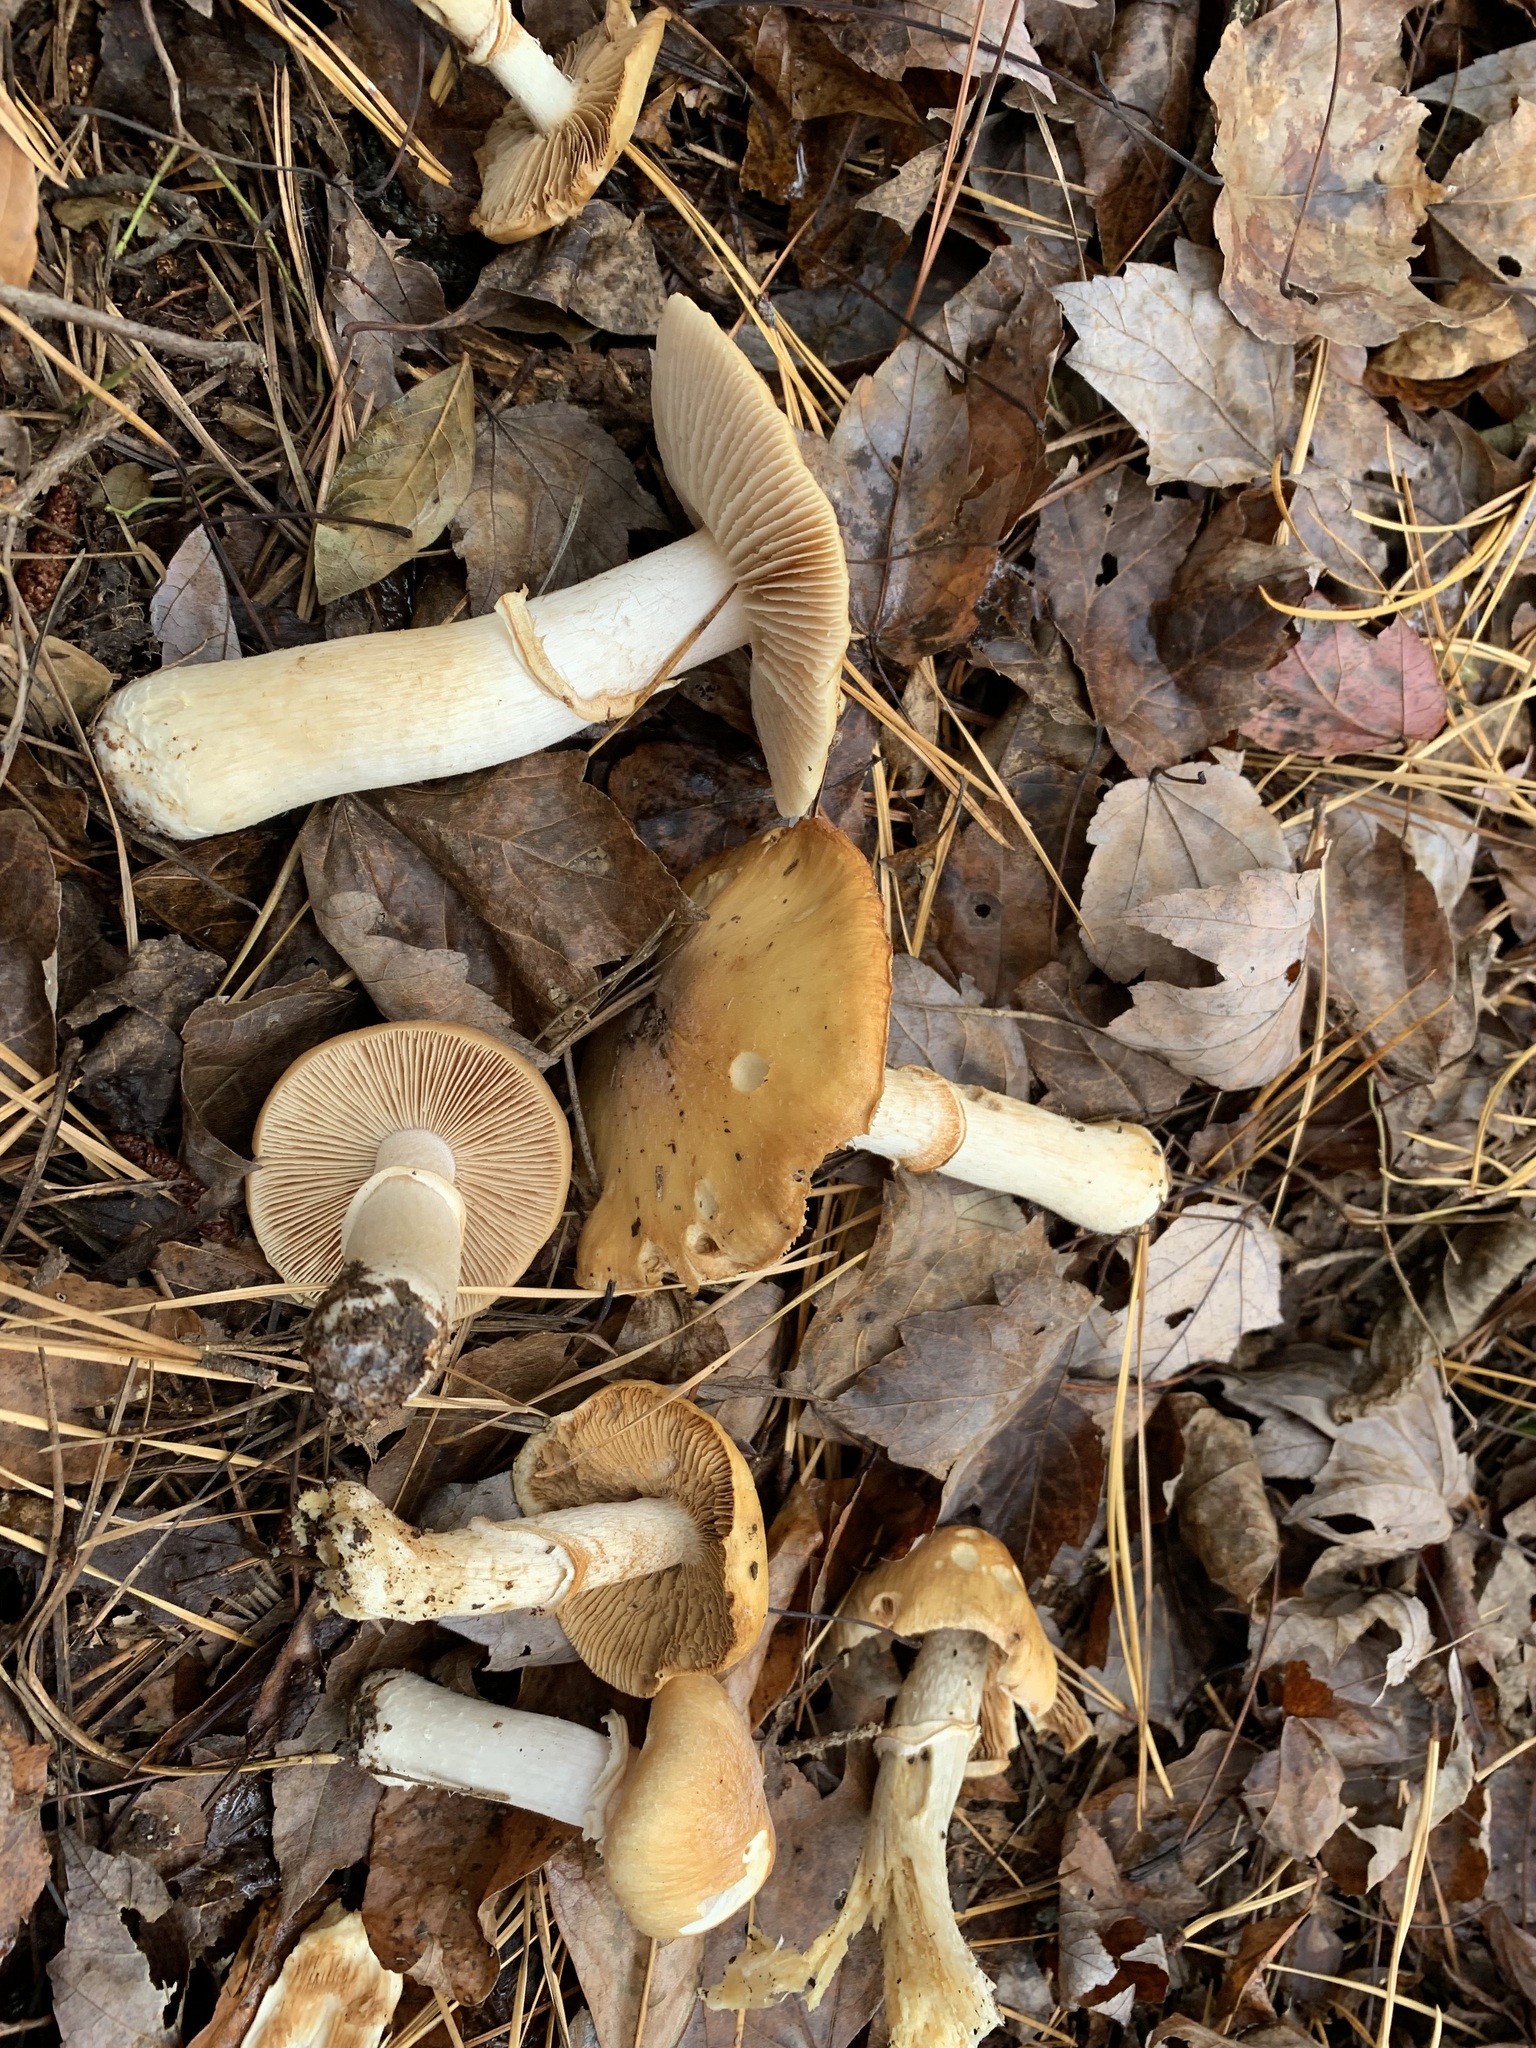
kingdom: Fungi
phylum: Basidiomycota
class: Agaricomycetes
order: Agaricales
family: Cortinariaceae
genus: Cortinarius
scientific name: Cortinarius caperatus
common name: The gypsy
